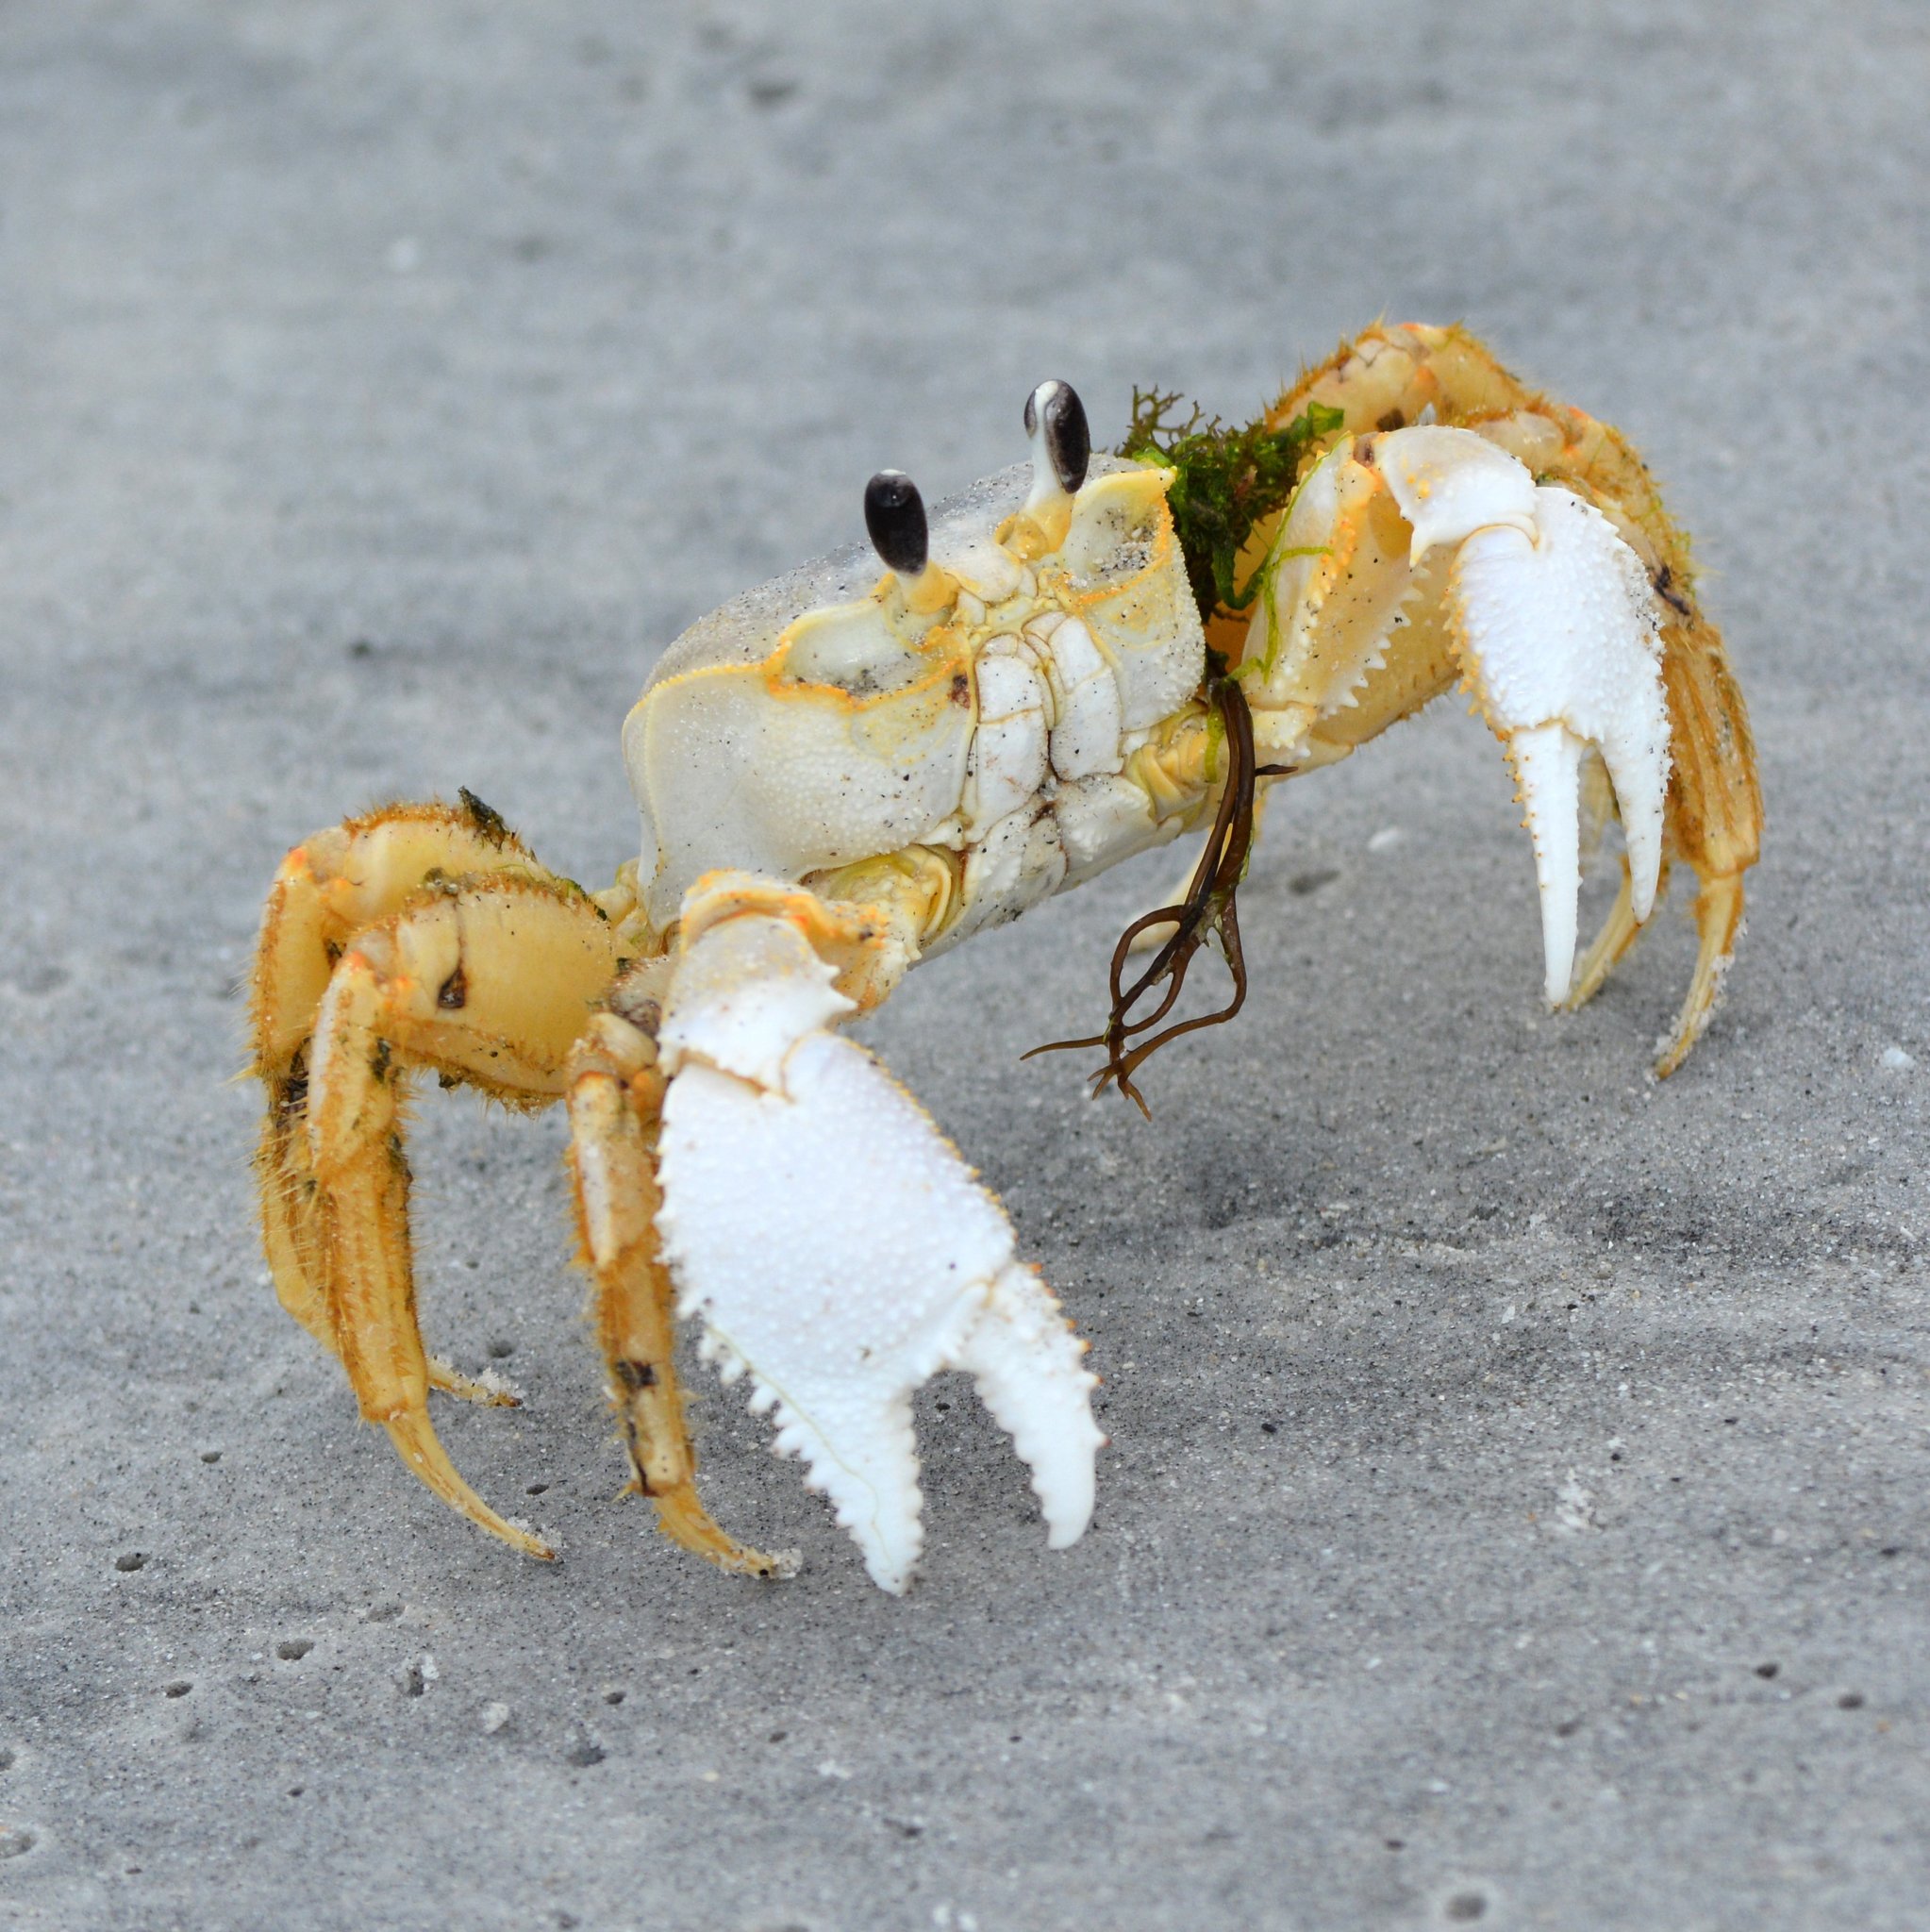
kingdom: Animalia
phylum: Arthropoda
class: Malacostraca
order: Decapoda
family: Ocypodidae
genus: Ocypode
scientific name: Ocypode quadrata
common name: Ghost crab
